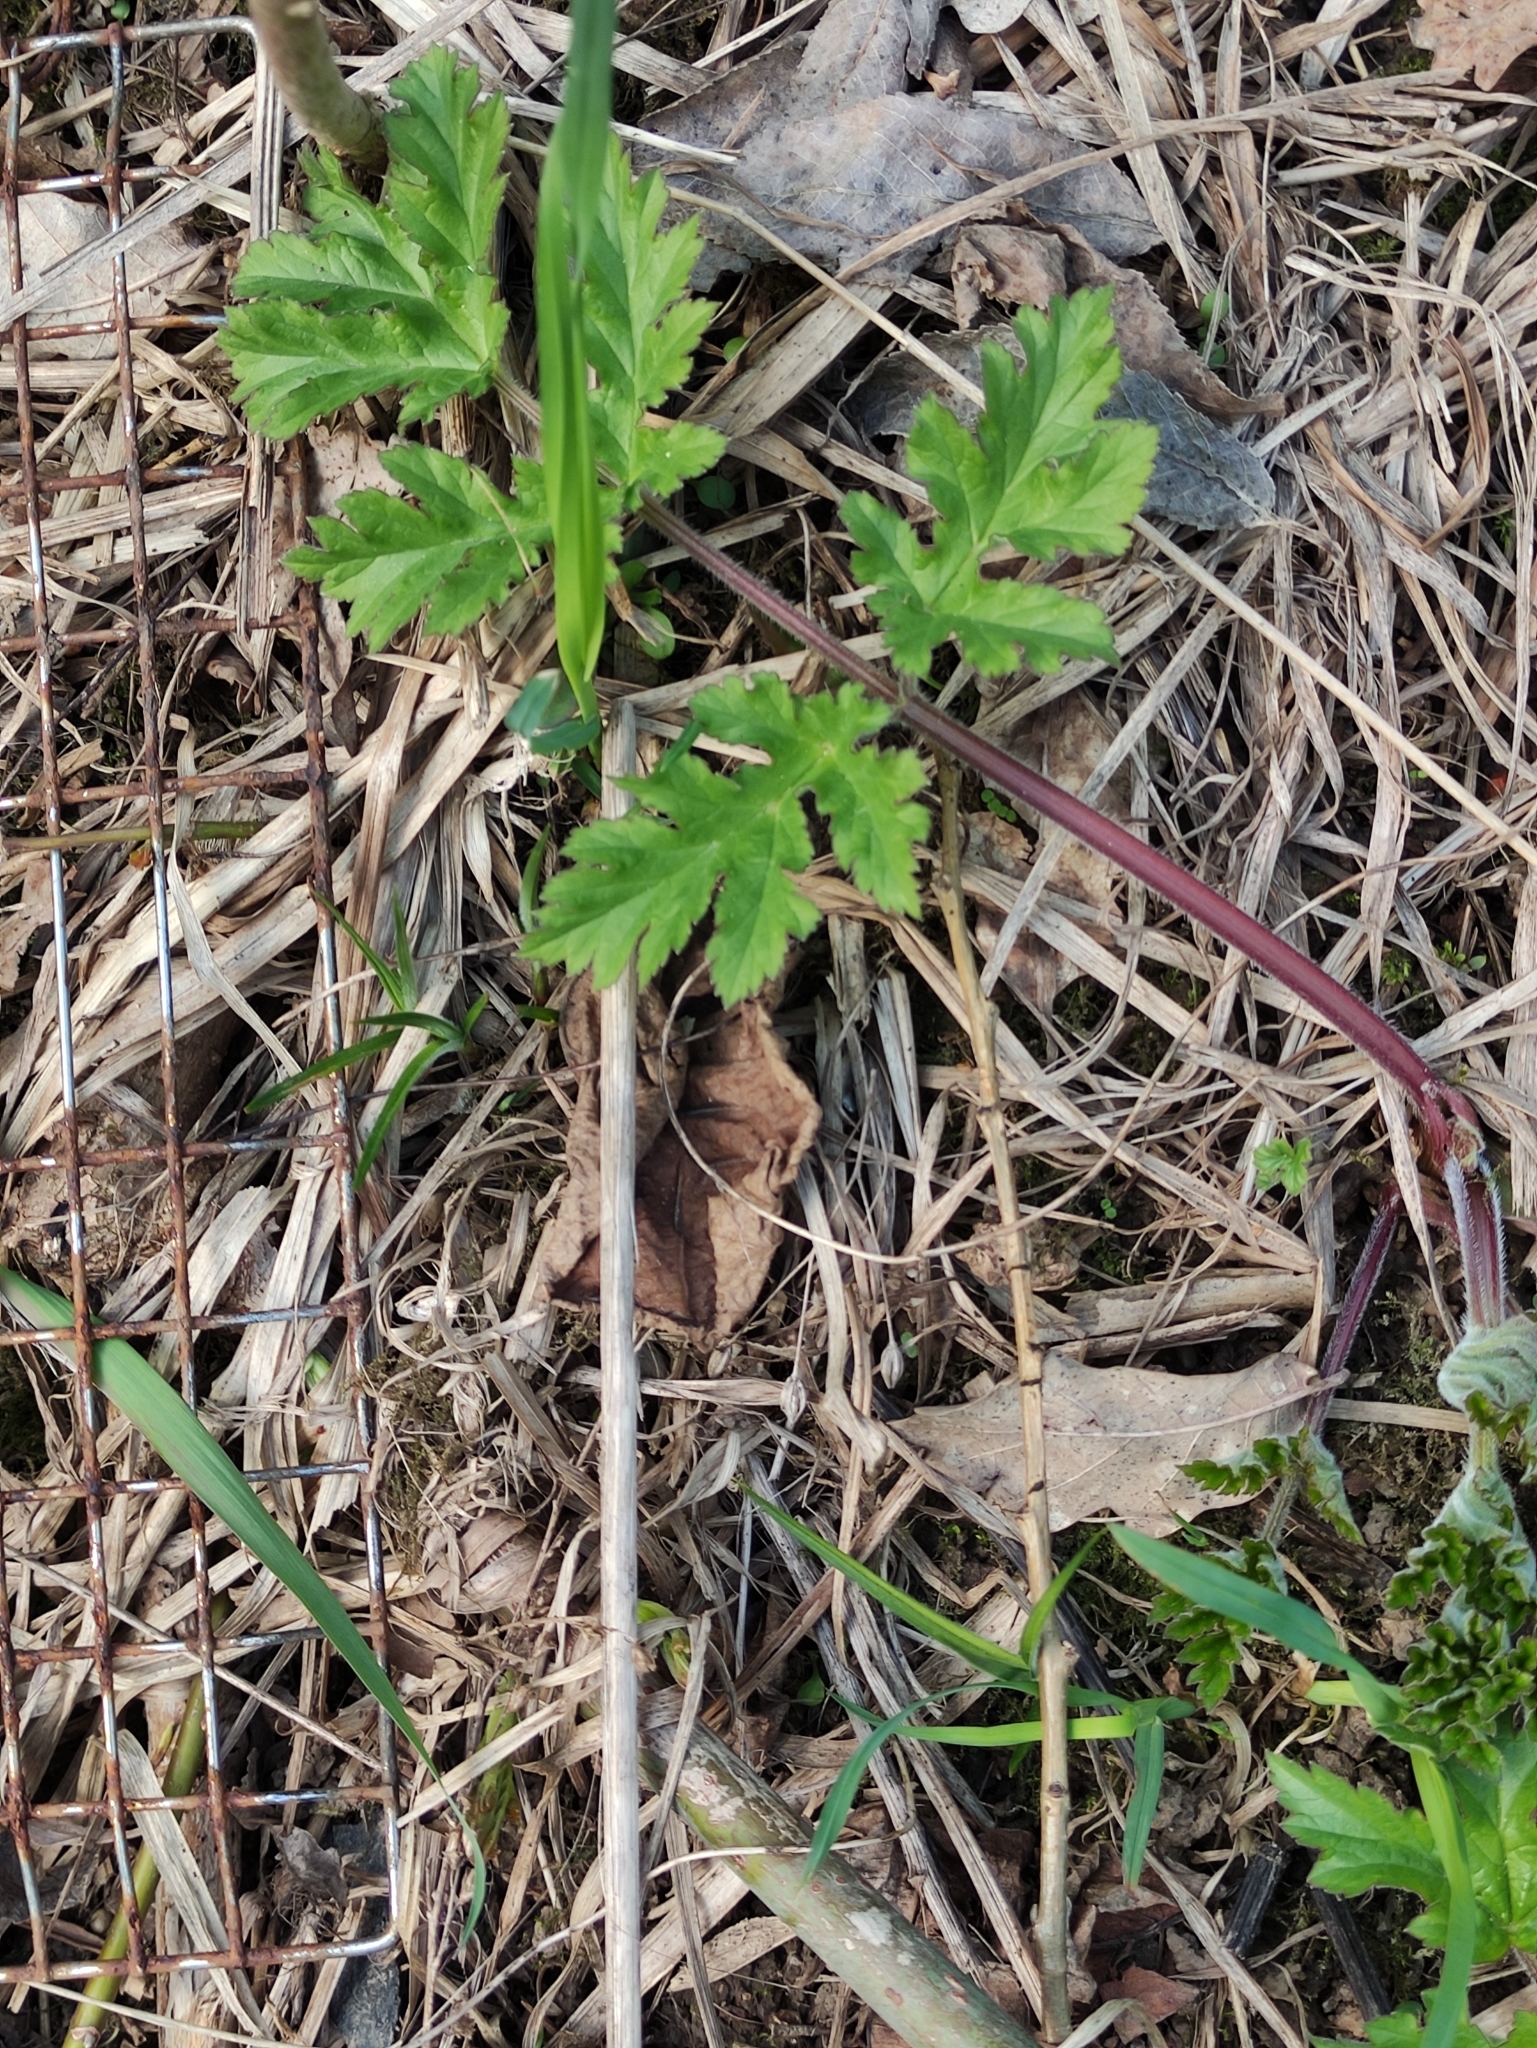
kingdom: Plantae
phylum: Tracheophyta
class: Magnoliopsida
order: Apiales
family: Apiaceae
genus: Heracleum
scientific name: Heracleum sphondylium
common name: Hogweed
